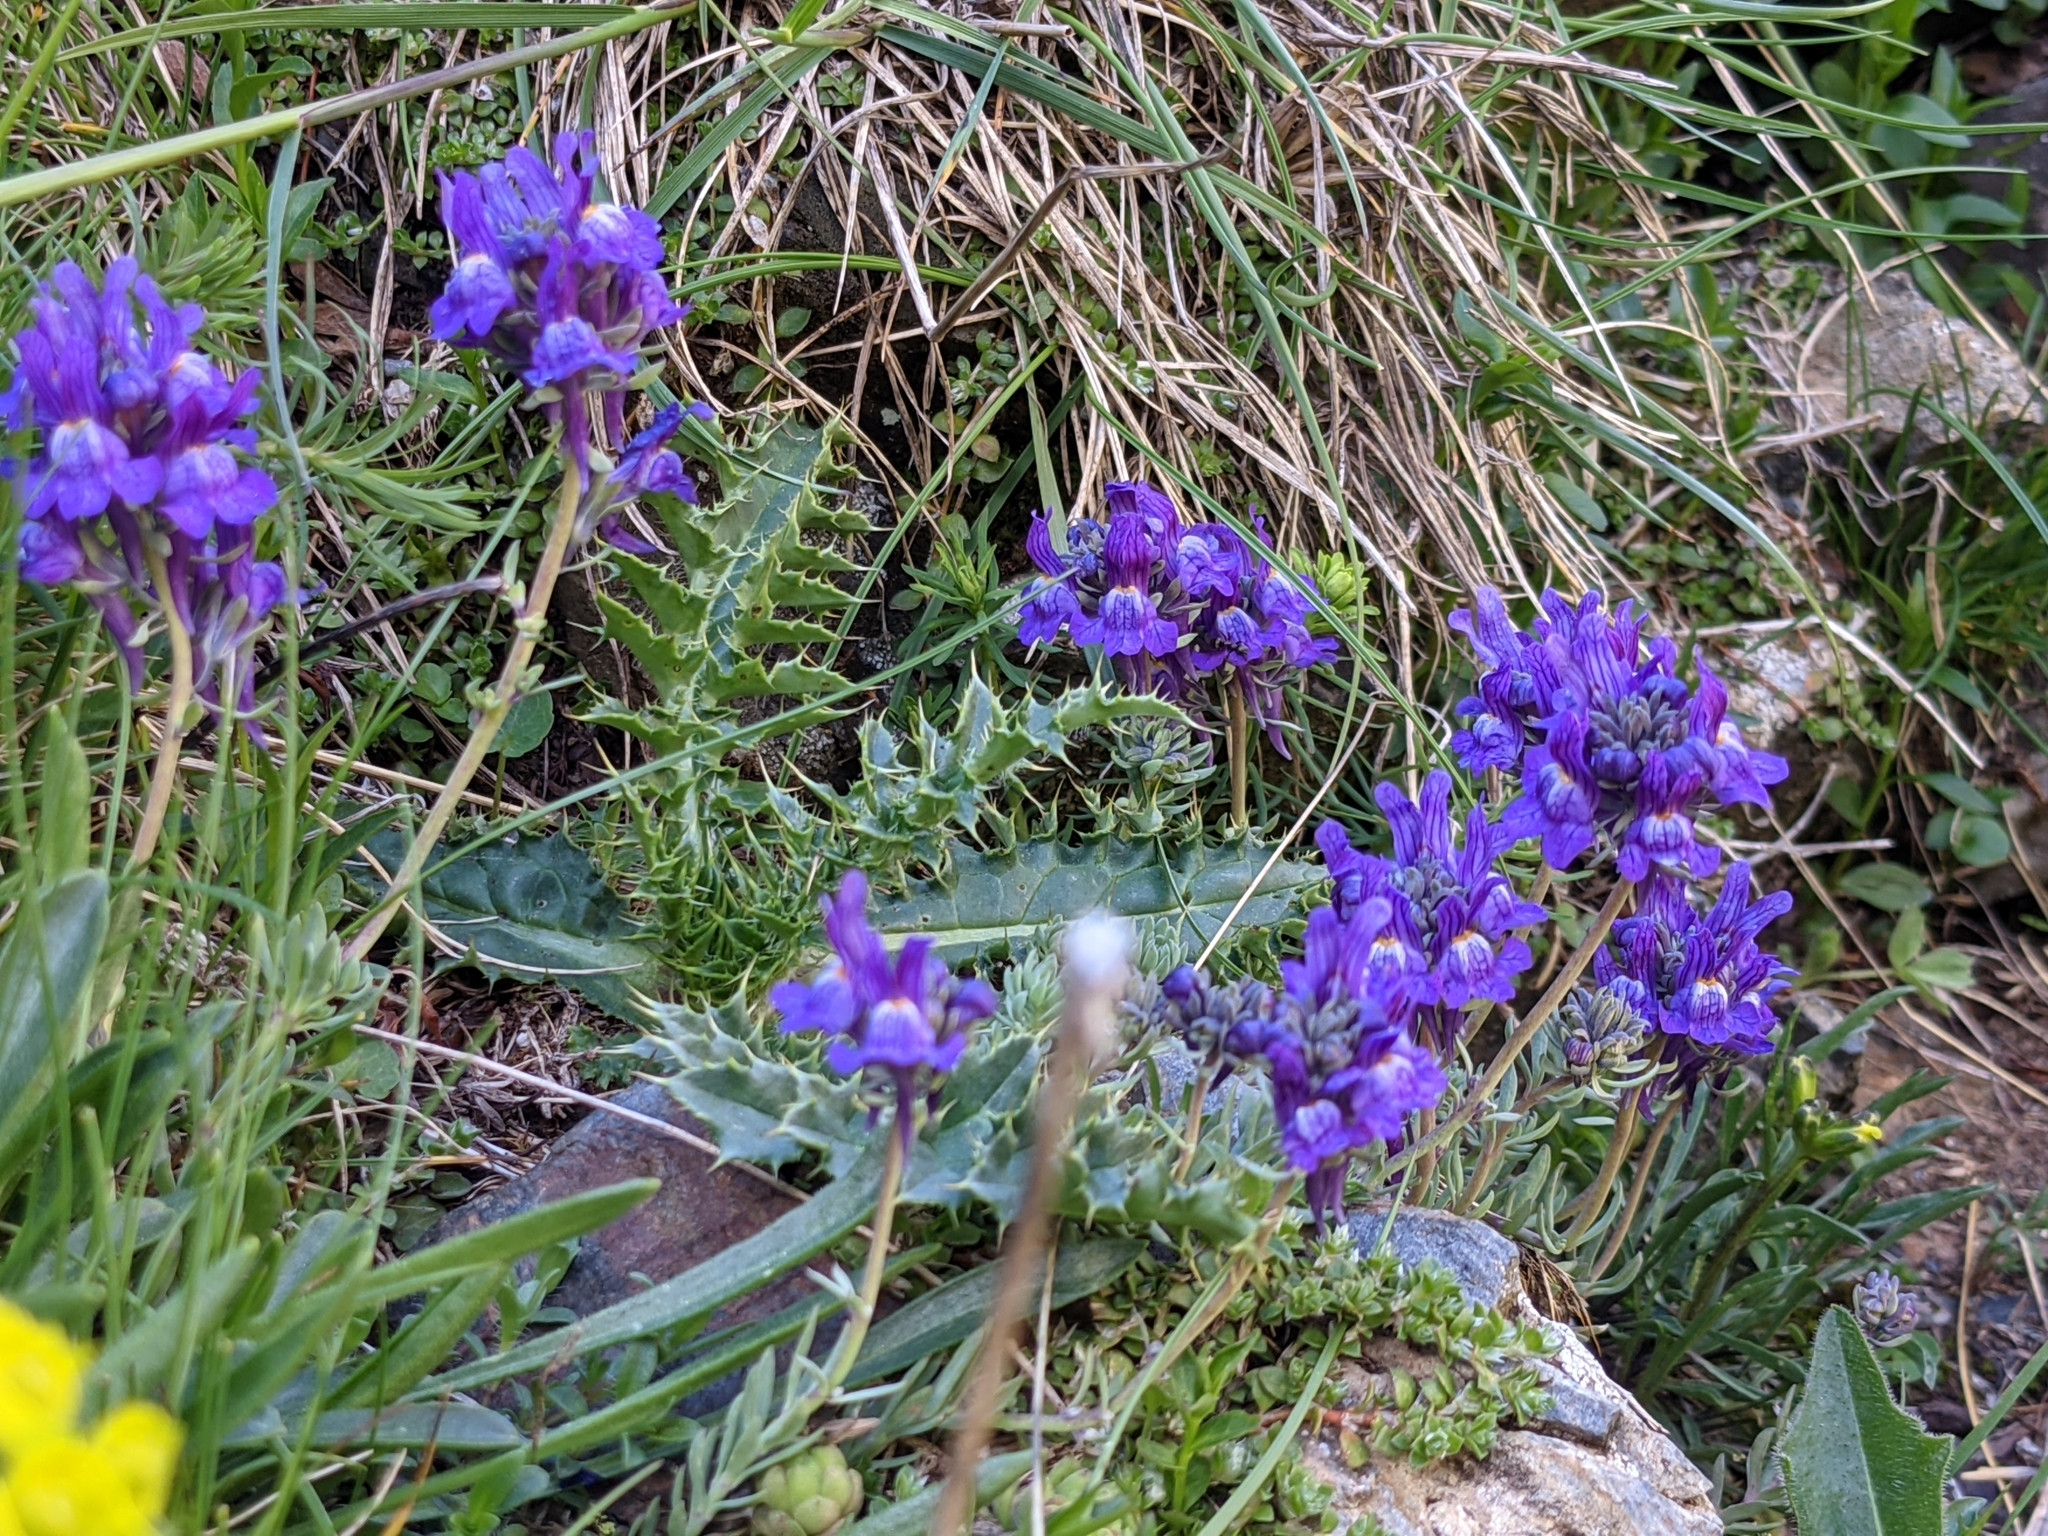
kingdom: Plantae
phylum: Tracheophyta
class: Magnoliopsida
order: Lamiales
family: Plantaginaceae
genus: Linaria
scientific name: Linaria alpina
